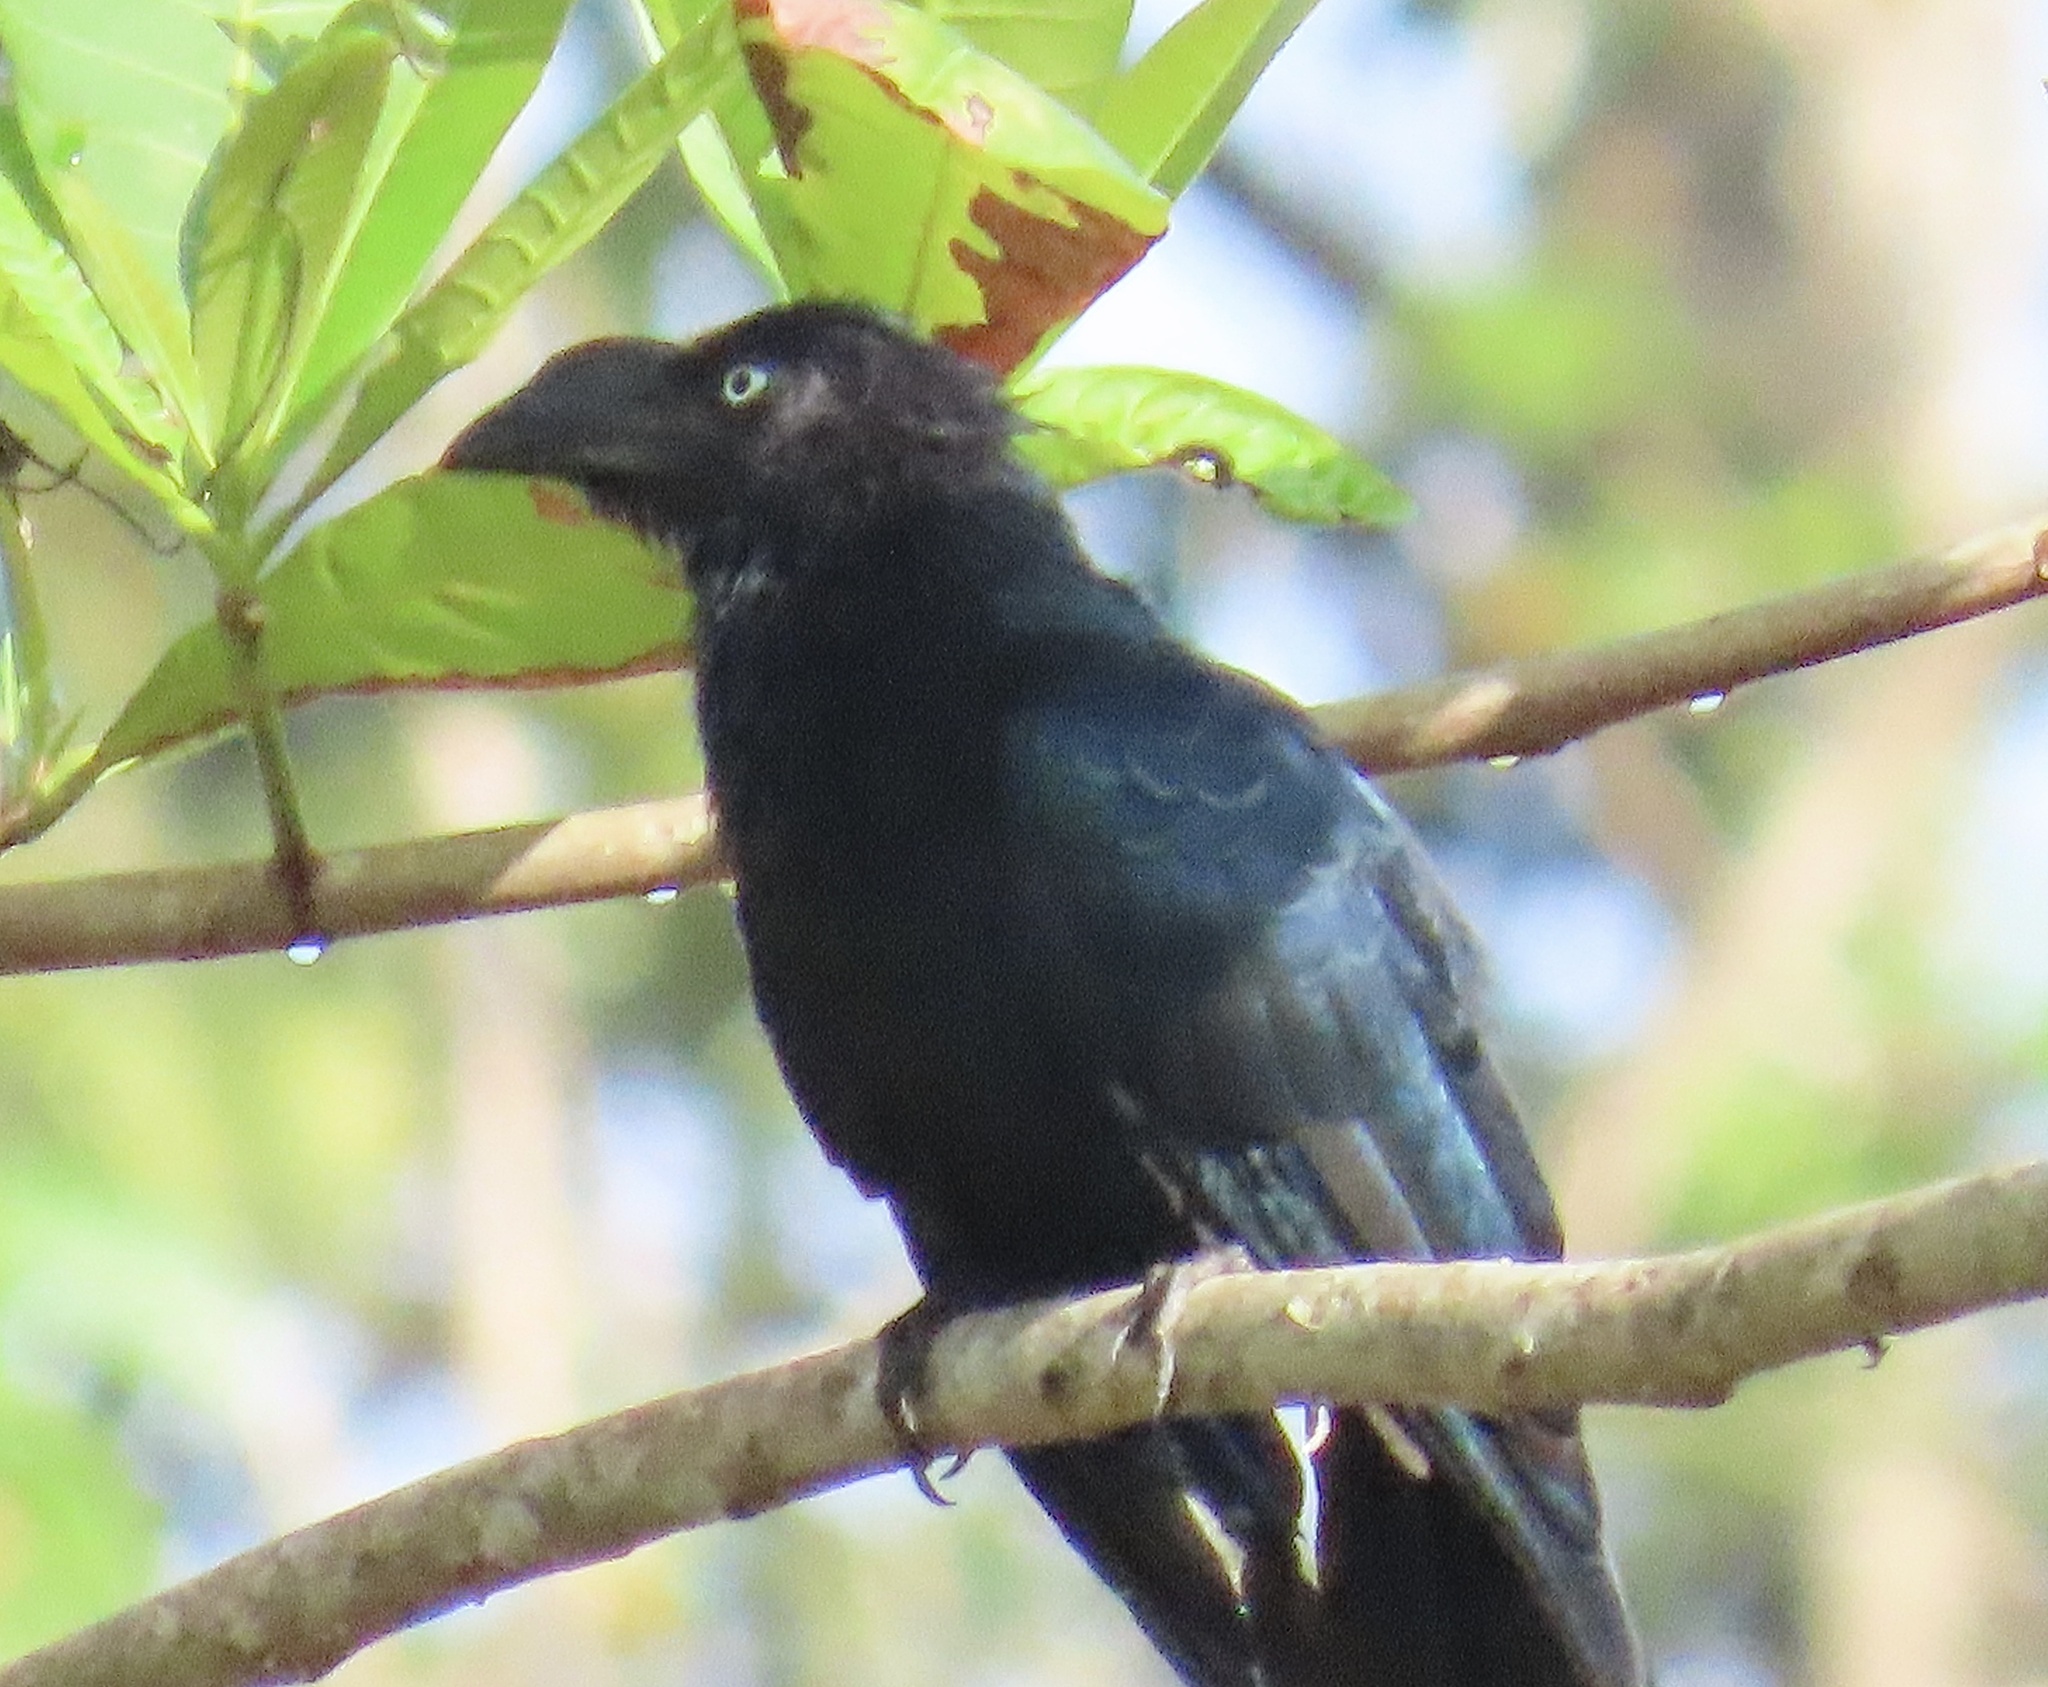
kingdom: Animalia
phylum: Chordata
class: Aves
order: Cuculiformes
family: Cuculidae
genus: Crotophaga
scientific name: Crotophaga major
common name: Greater ani
